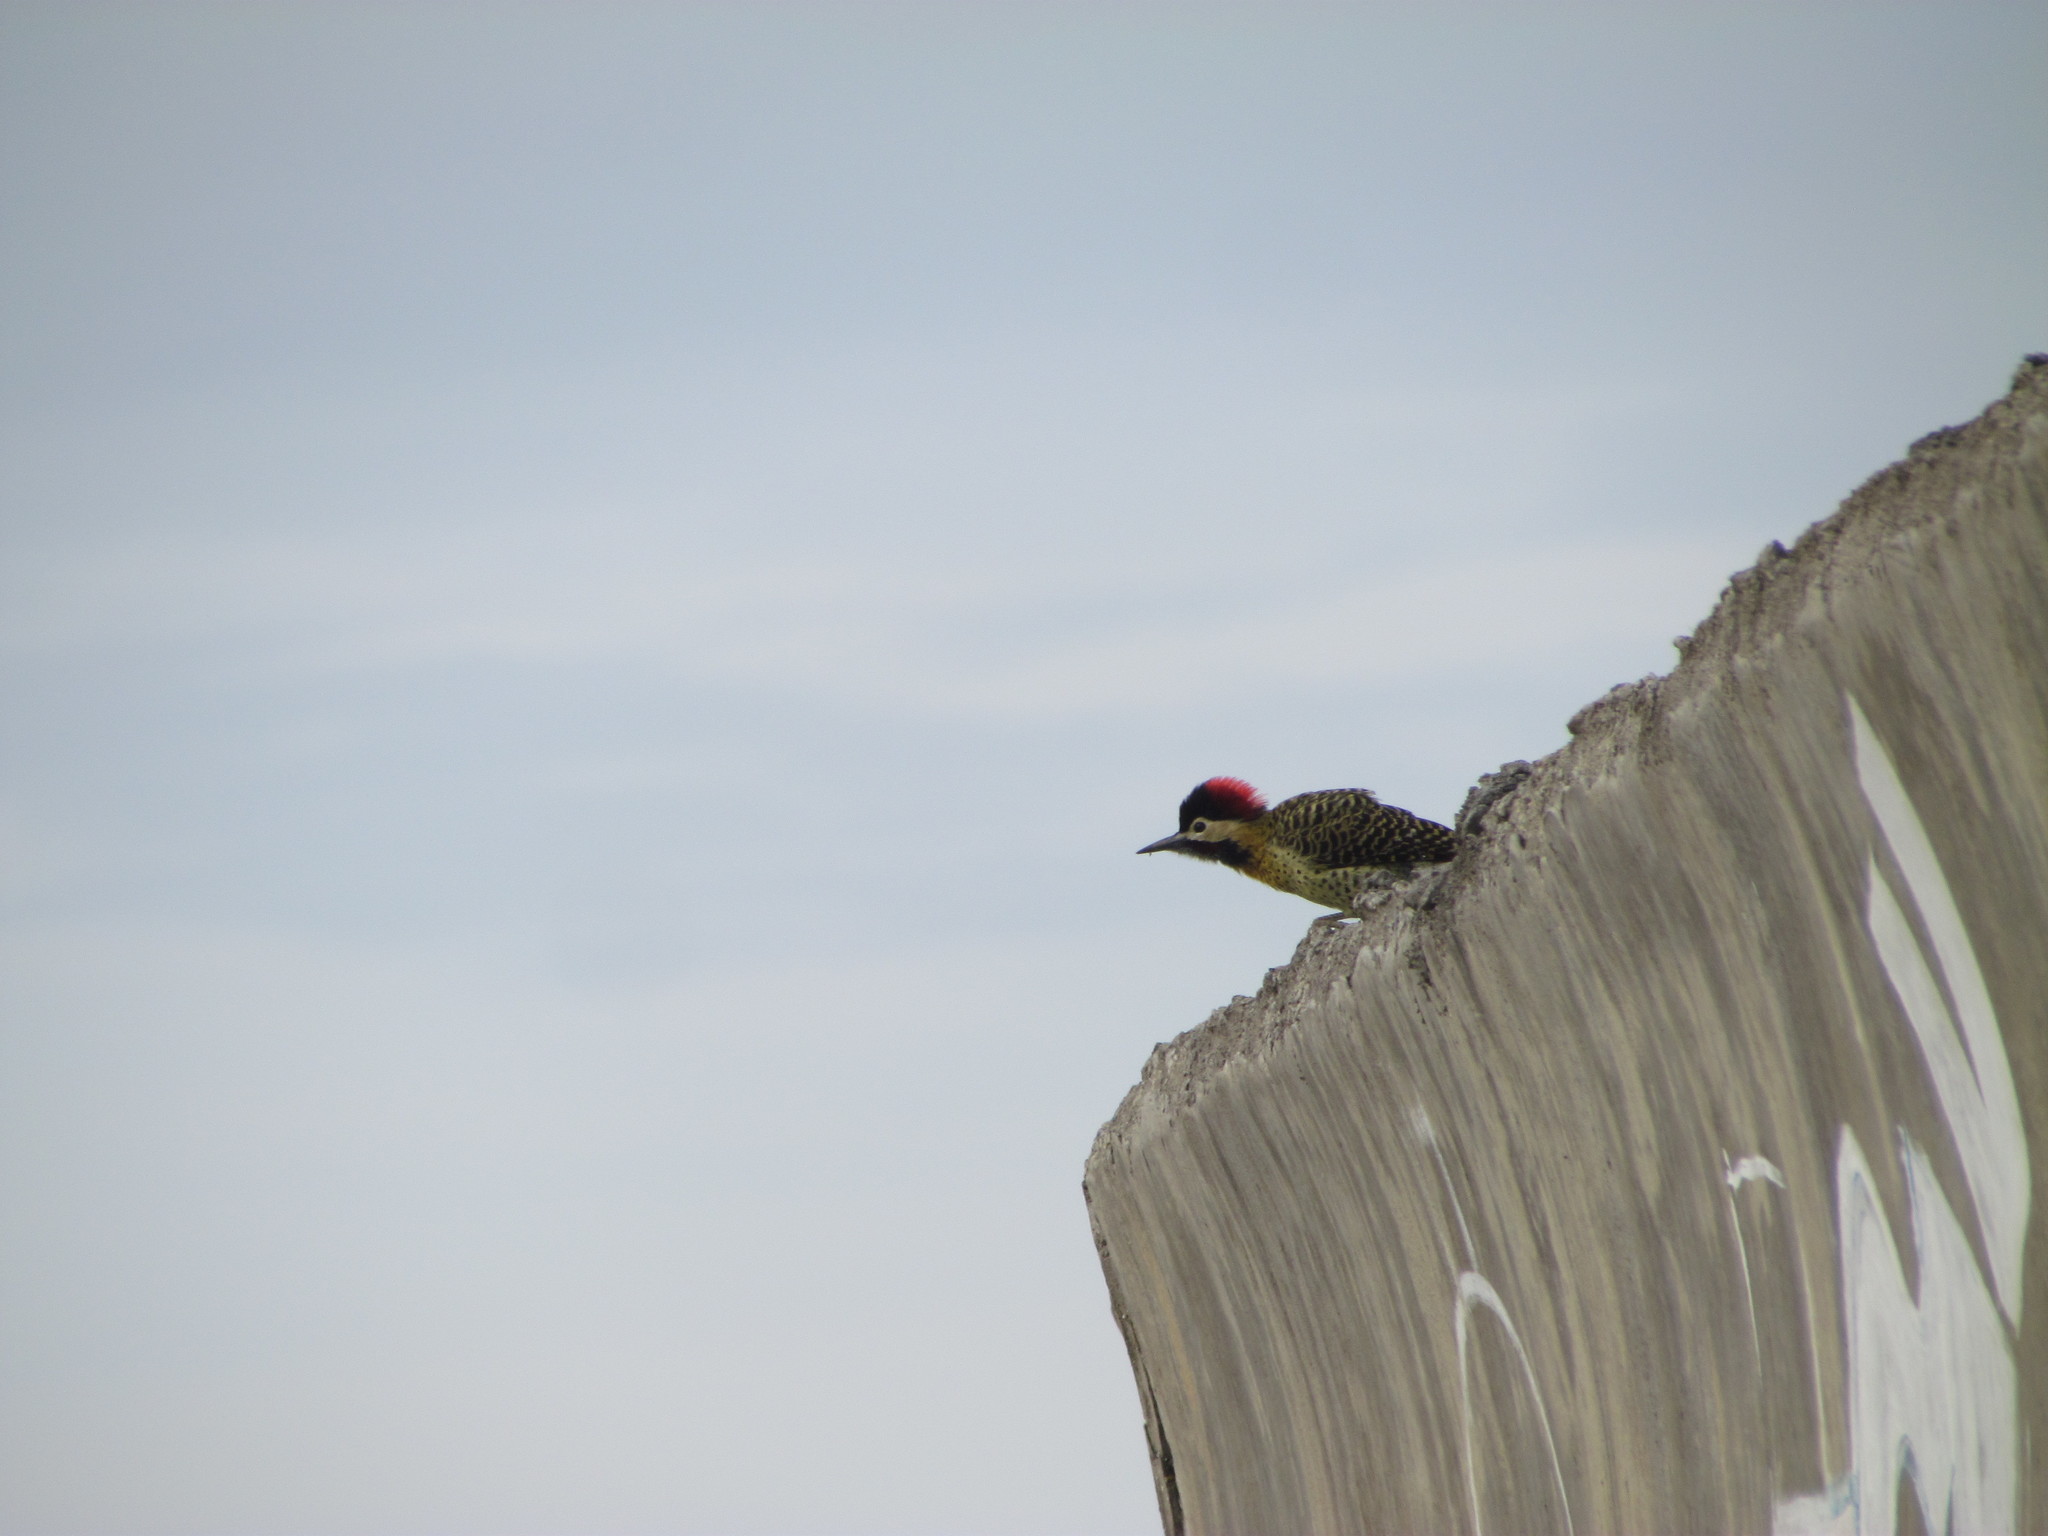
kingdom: Animalia
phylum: Chordata
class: Aves
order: Piciformes
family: Picidae
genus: Colaptes
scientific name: Colaptes melanochloros
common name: Green-barred woodpecker
